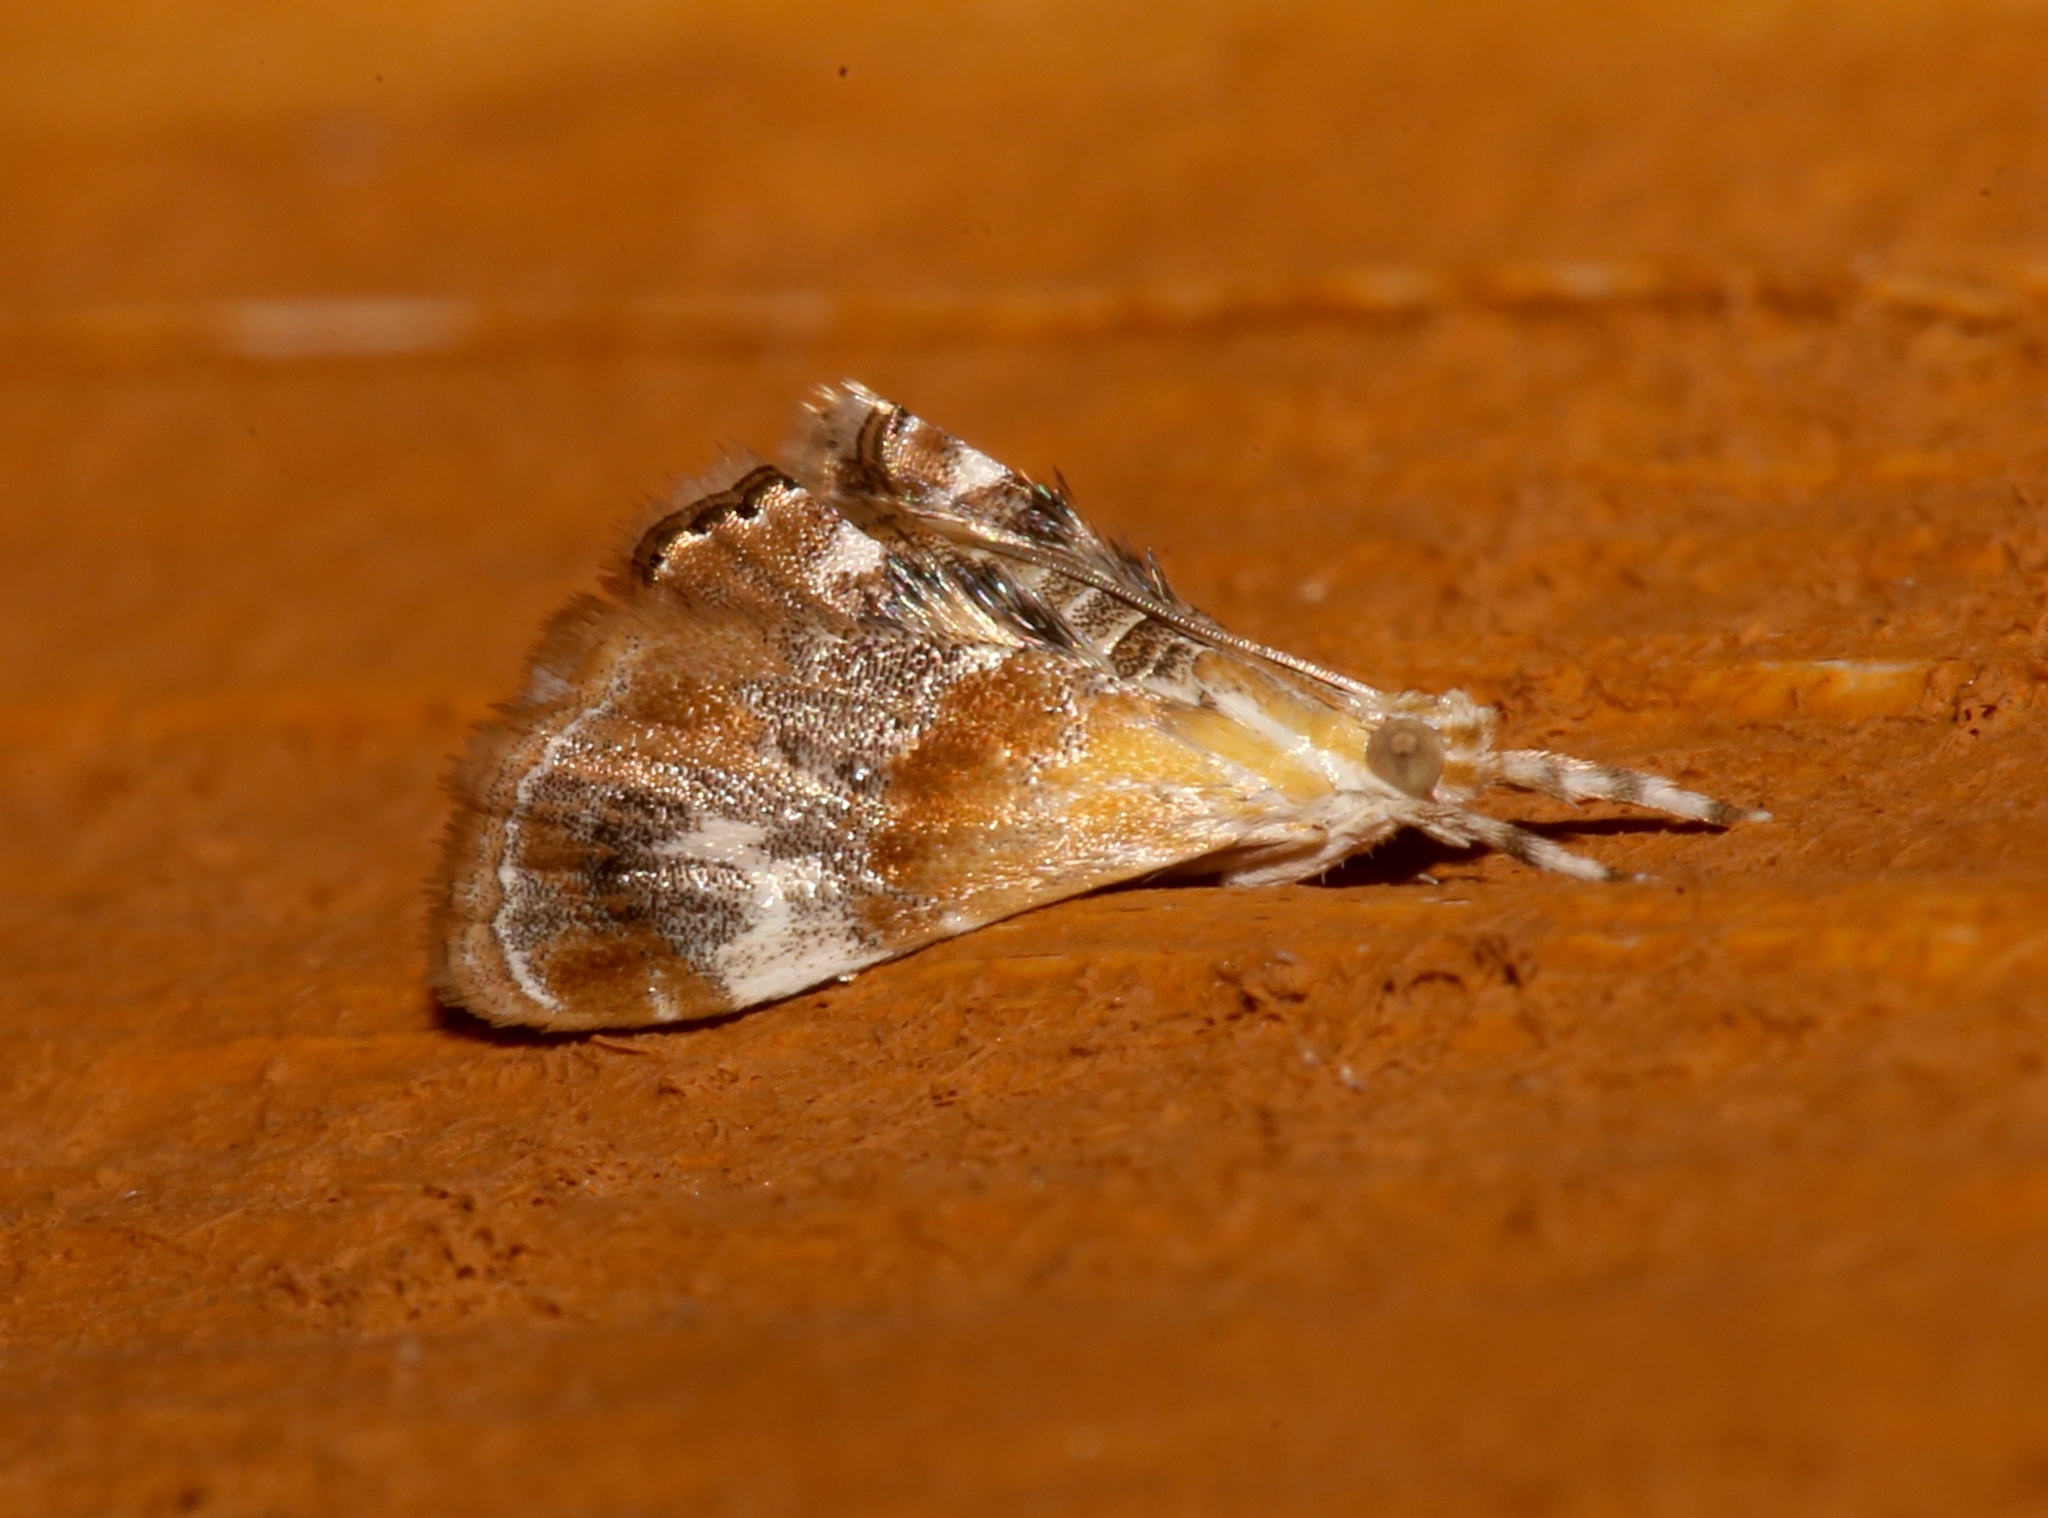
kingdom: Animalia
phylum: Arthropoda
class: Insecta
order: Lepidoptera
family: Crambidae
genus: Dicymolomia
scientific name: Dicymolomia julianalis
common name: Julia's dicymolomia moth
